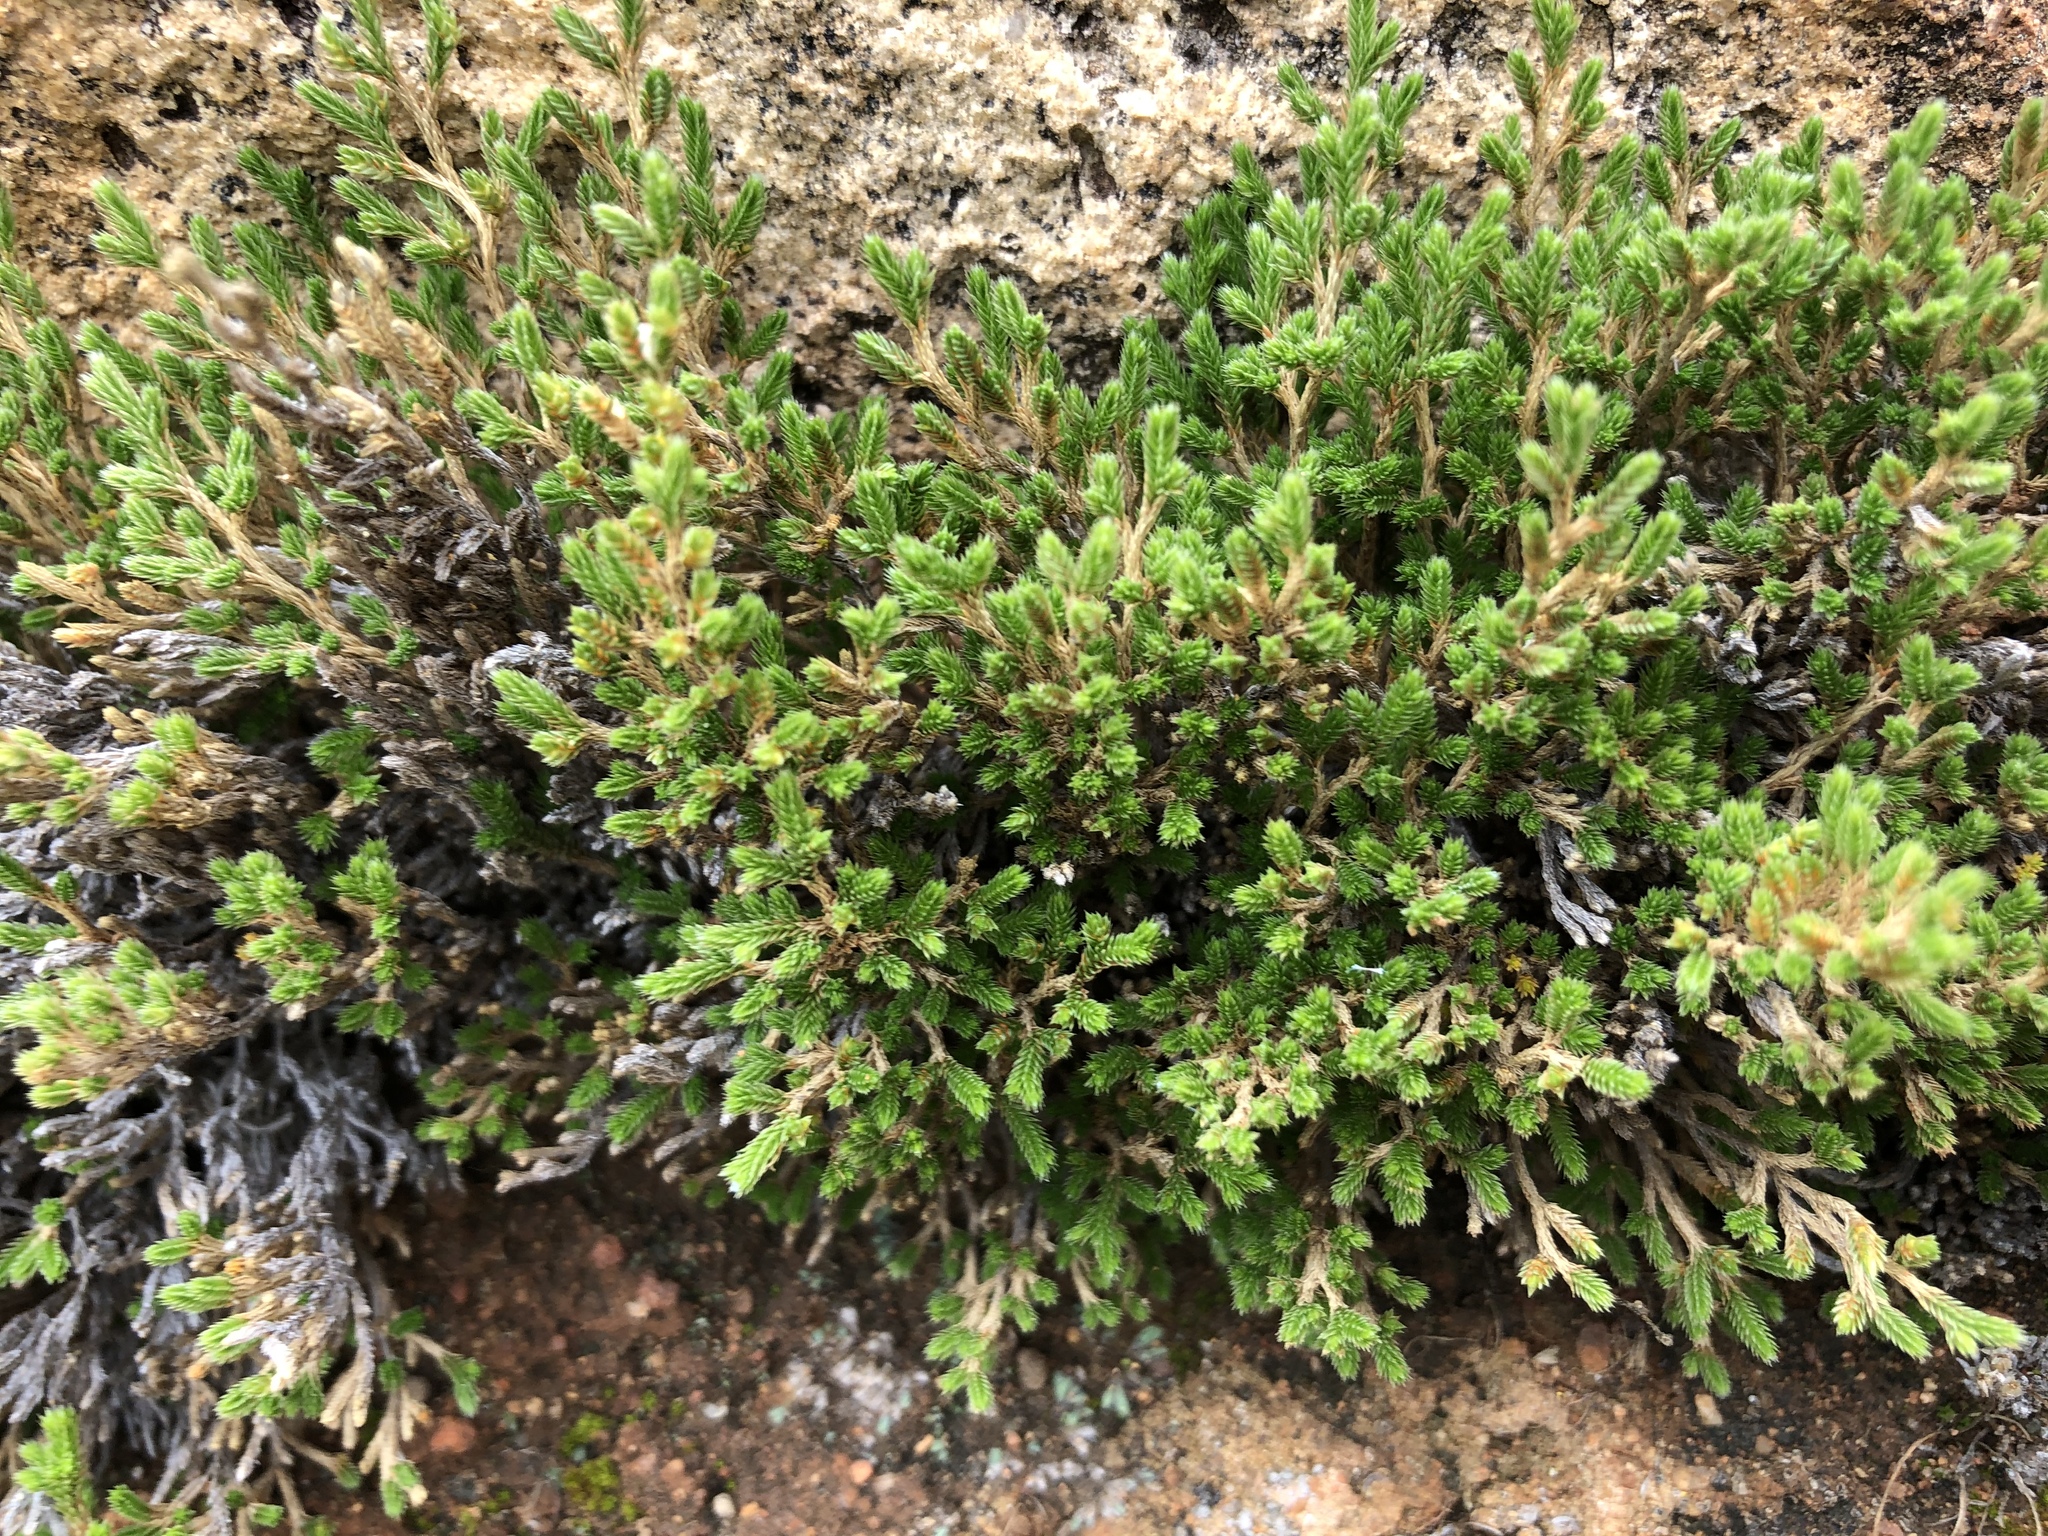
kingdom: Plantae
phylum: Tracheophyta
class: Lycopodiopsida
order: Selaginellales
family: Selaginellaceae
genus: Selaginella
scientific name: Selaginella bigelovii
